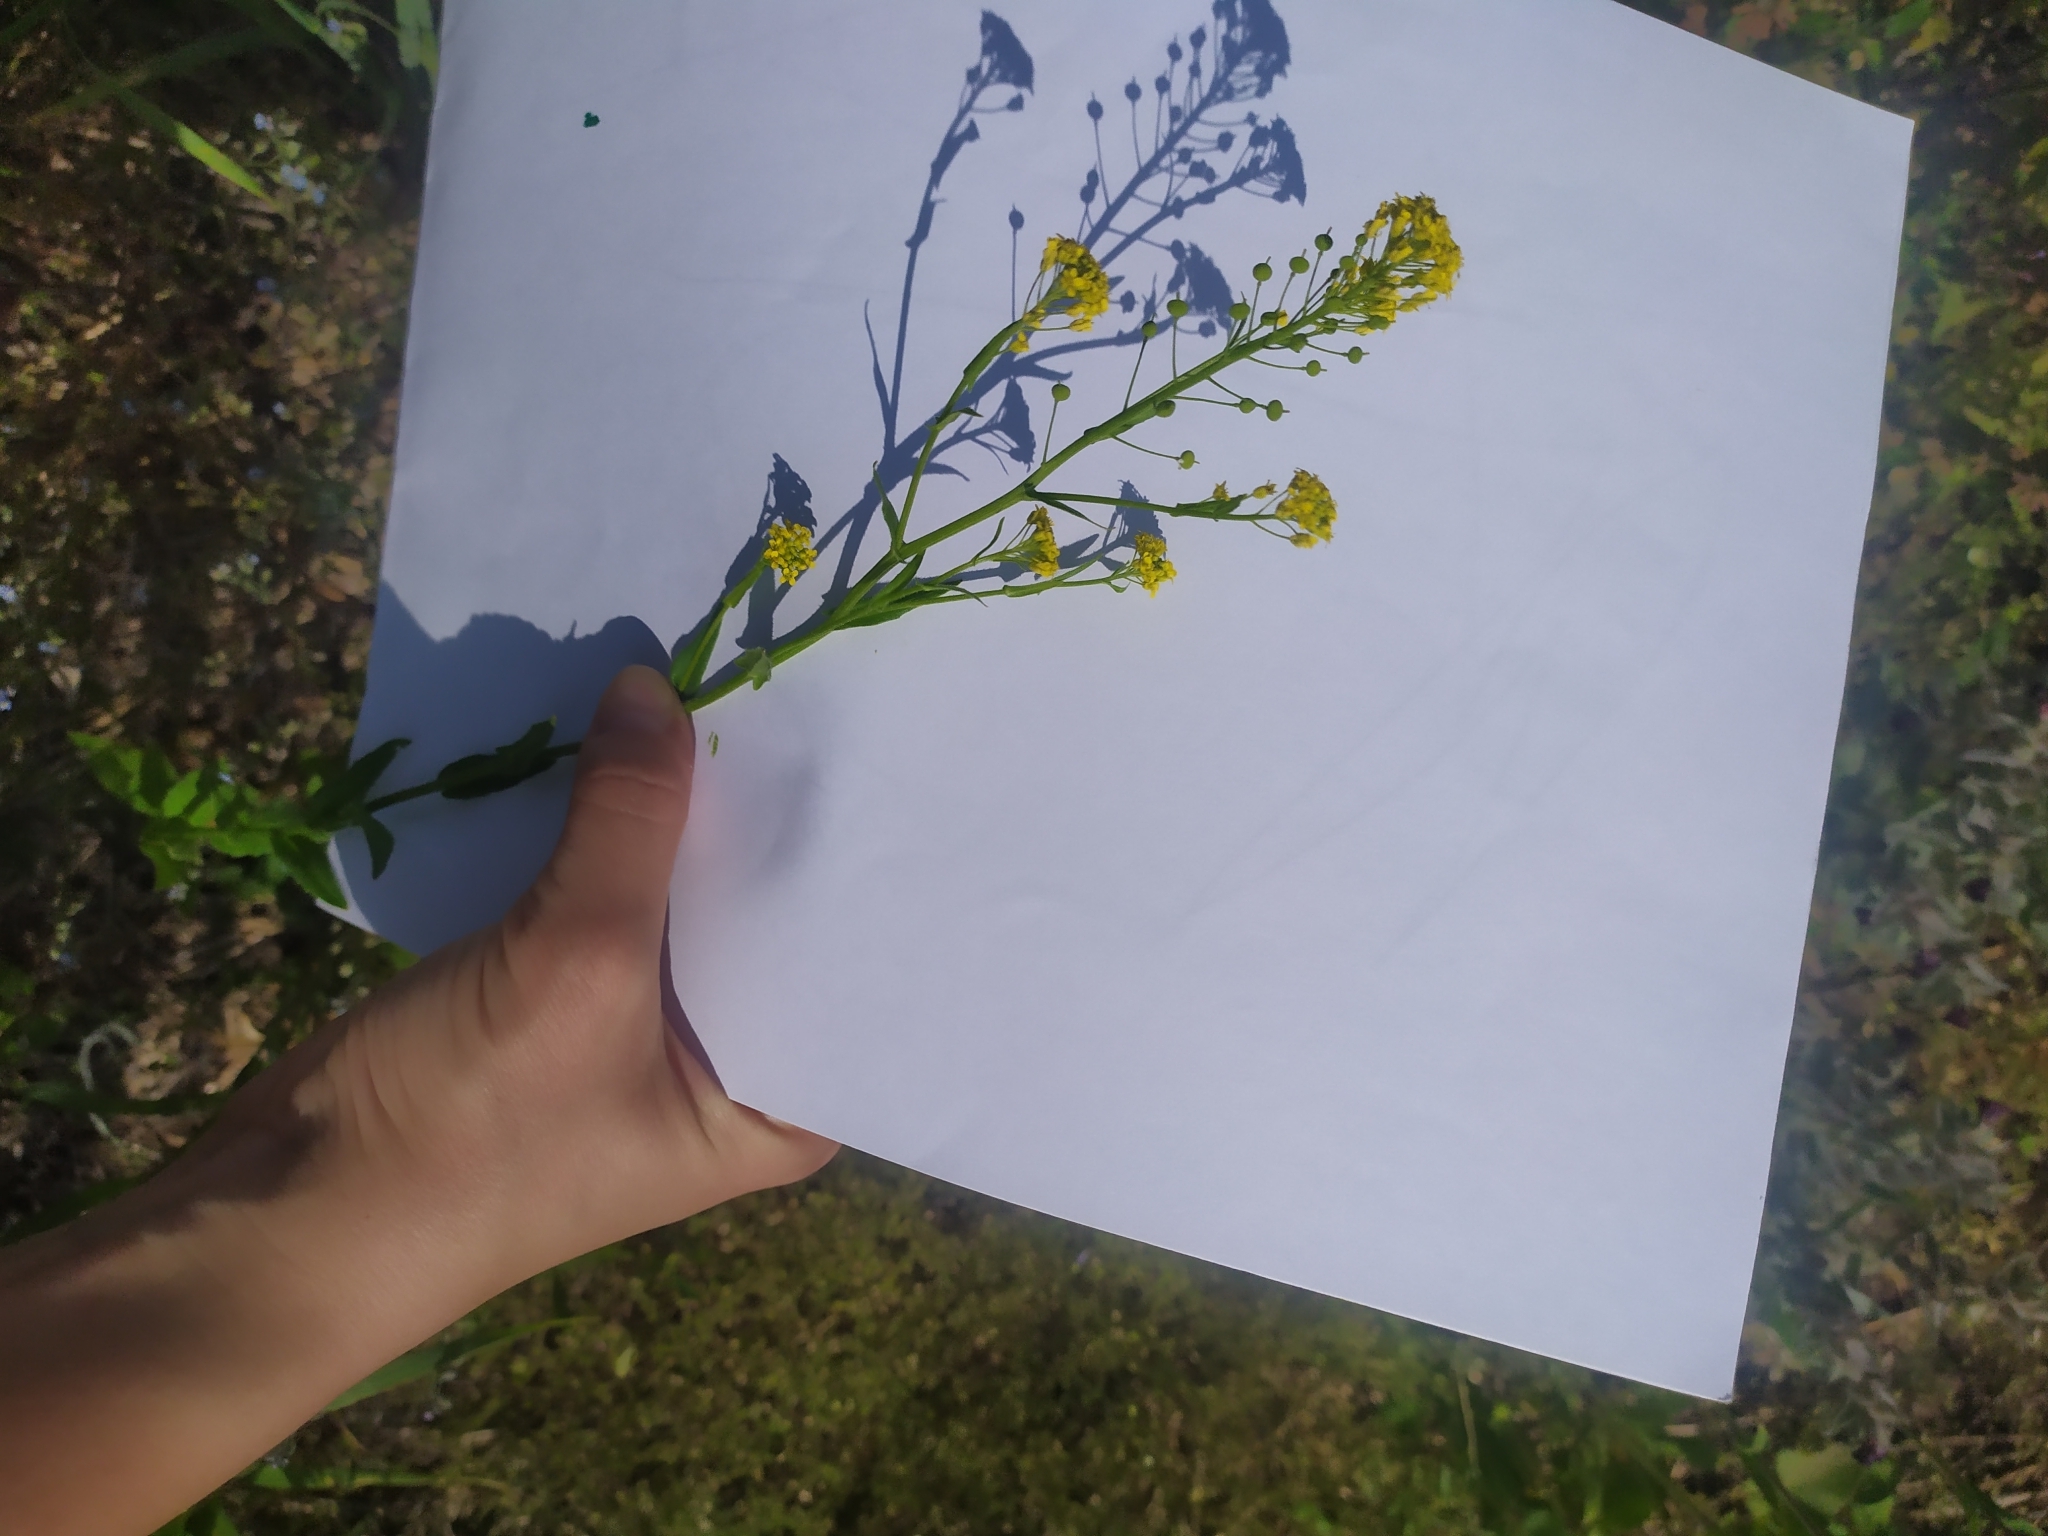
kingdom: Plantae
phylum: Tracheophyta
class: Magnoliopsida
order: Brassicales
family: Brassicaceae
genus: Neslia
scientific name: Neslia paniculata
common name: Ball mustard
